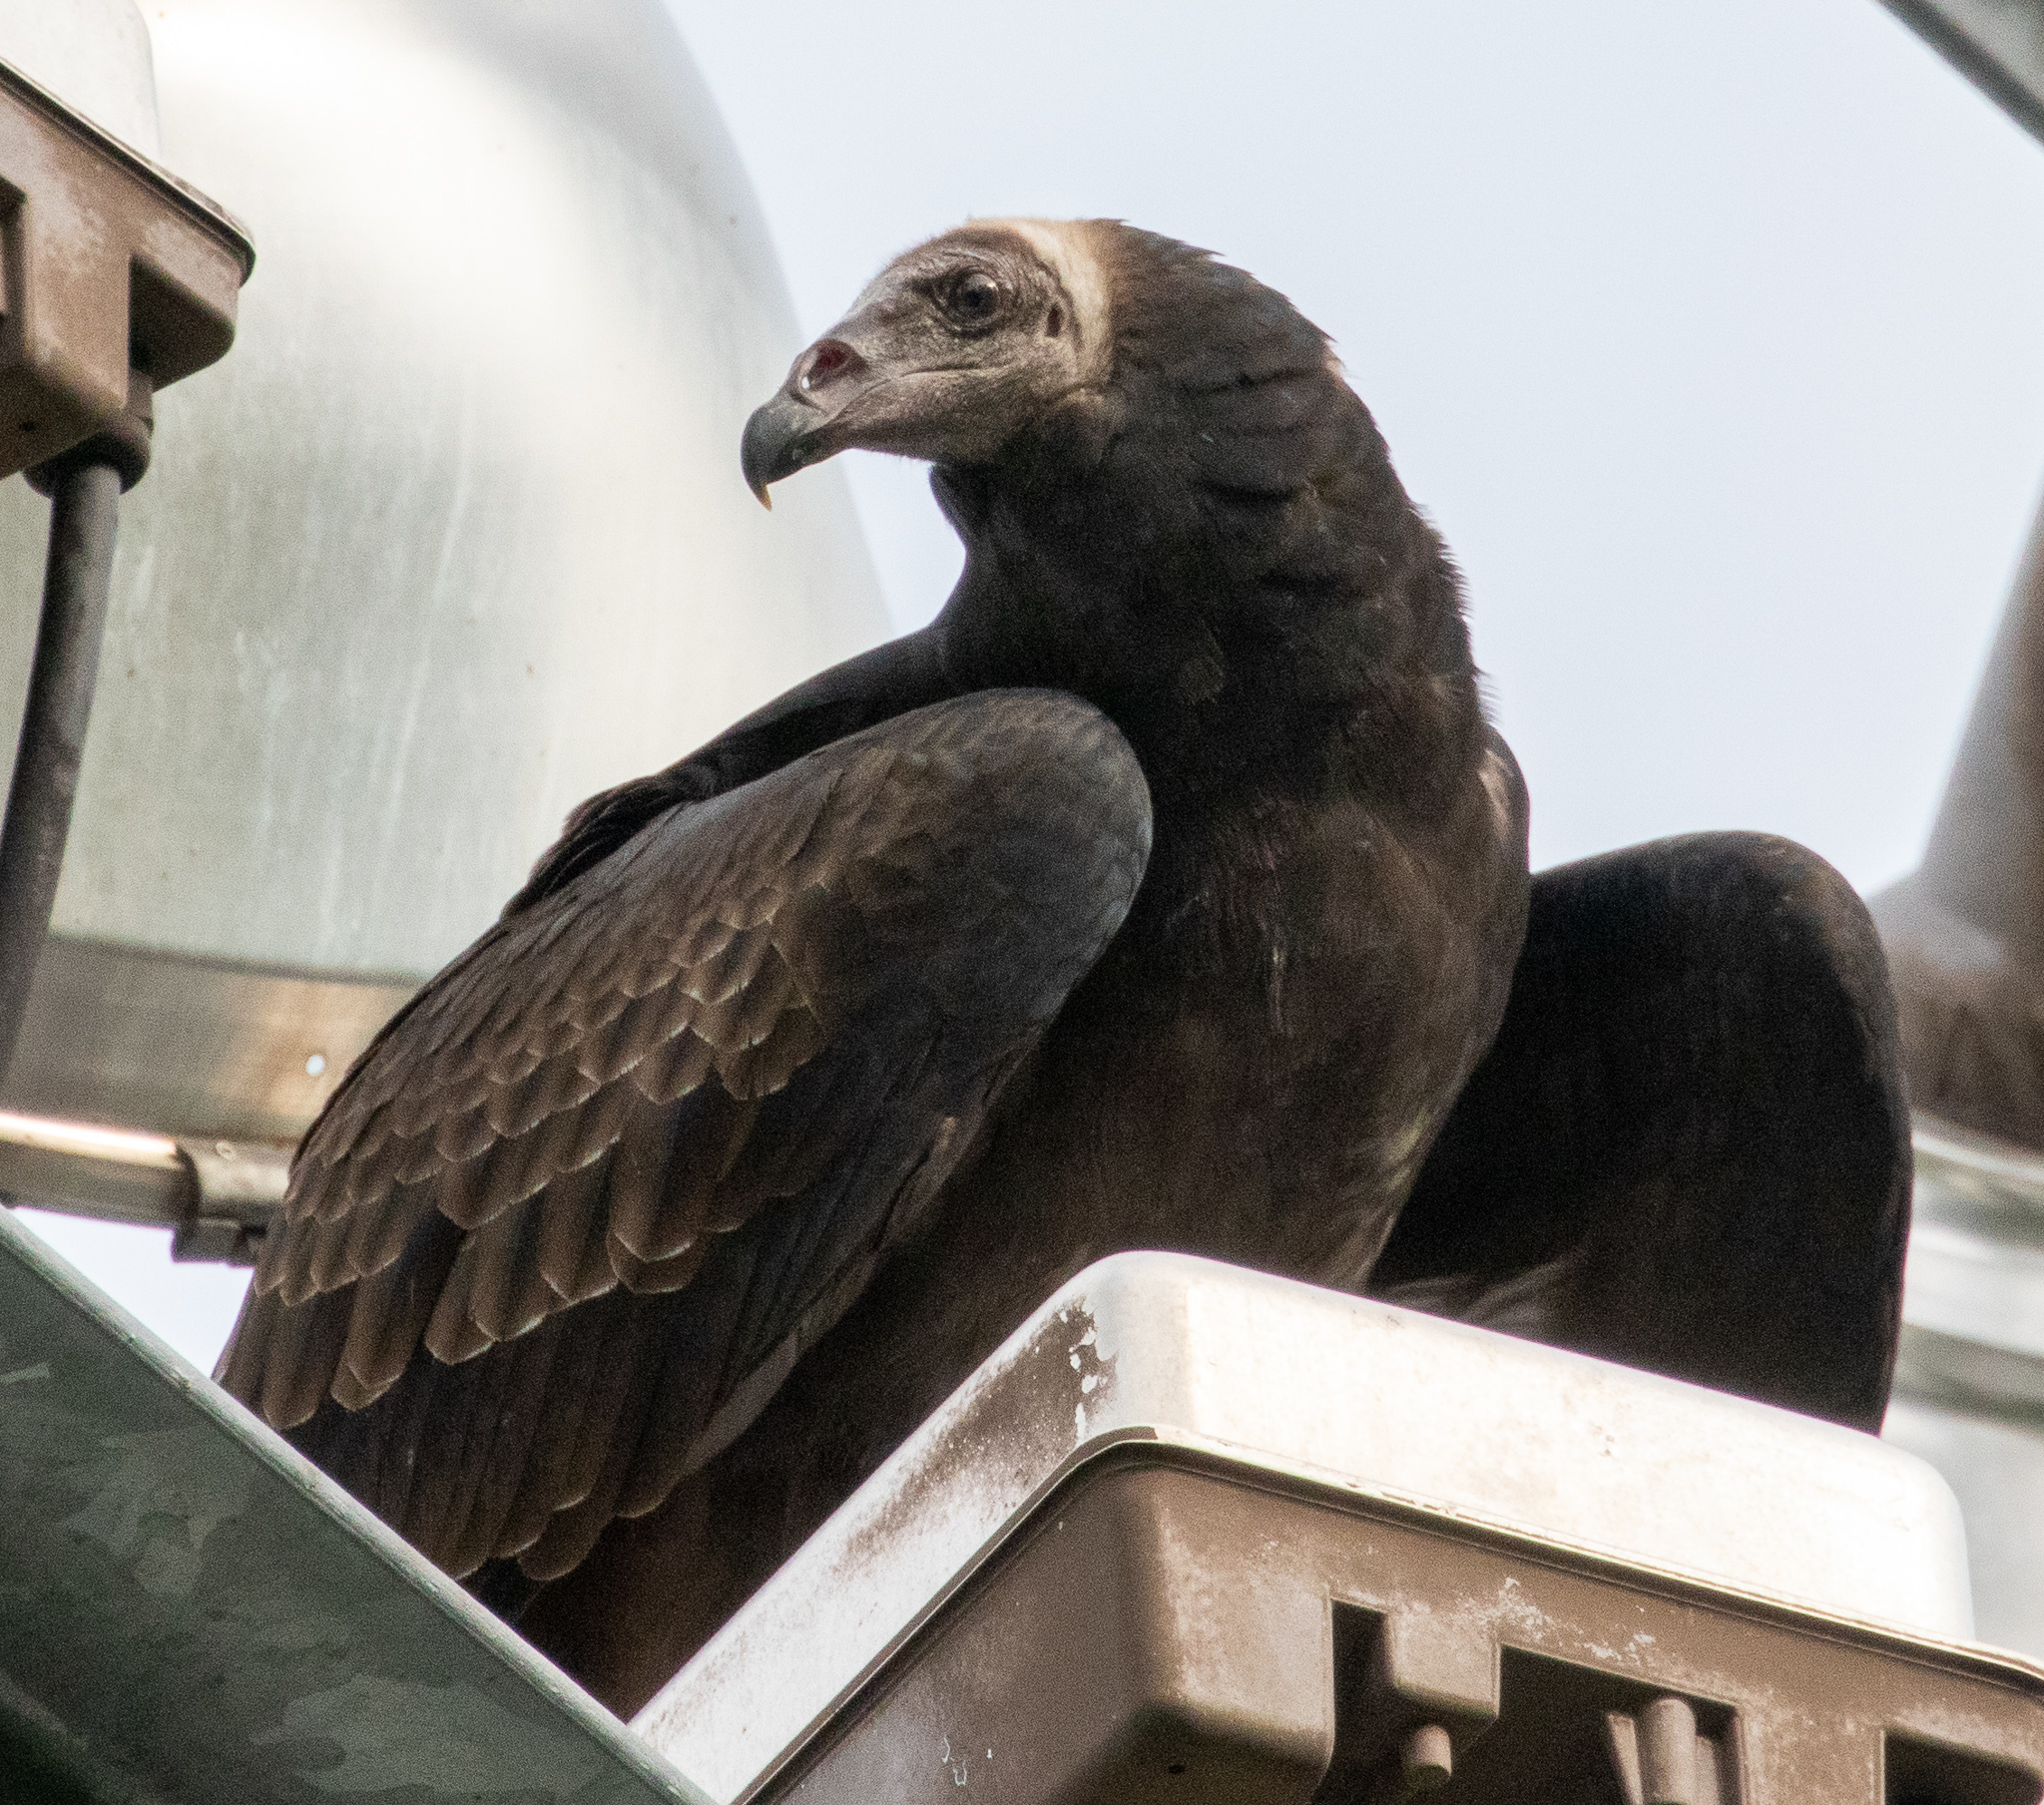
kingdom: Animalia
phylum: Chordata
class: Aves
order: Accipitriformes
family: Cathartidae
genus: Cathartes
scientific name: Cathartes aura
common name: Turkey vulture
